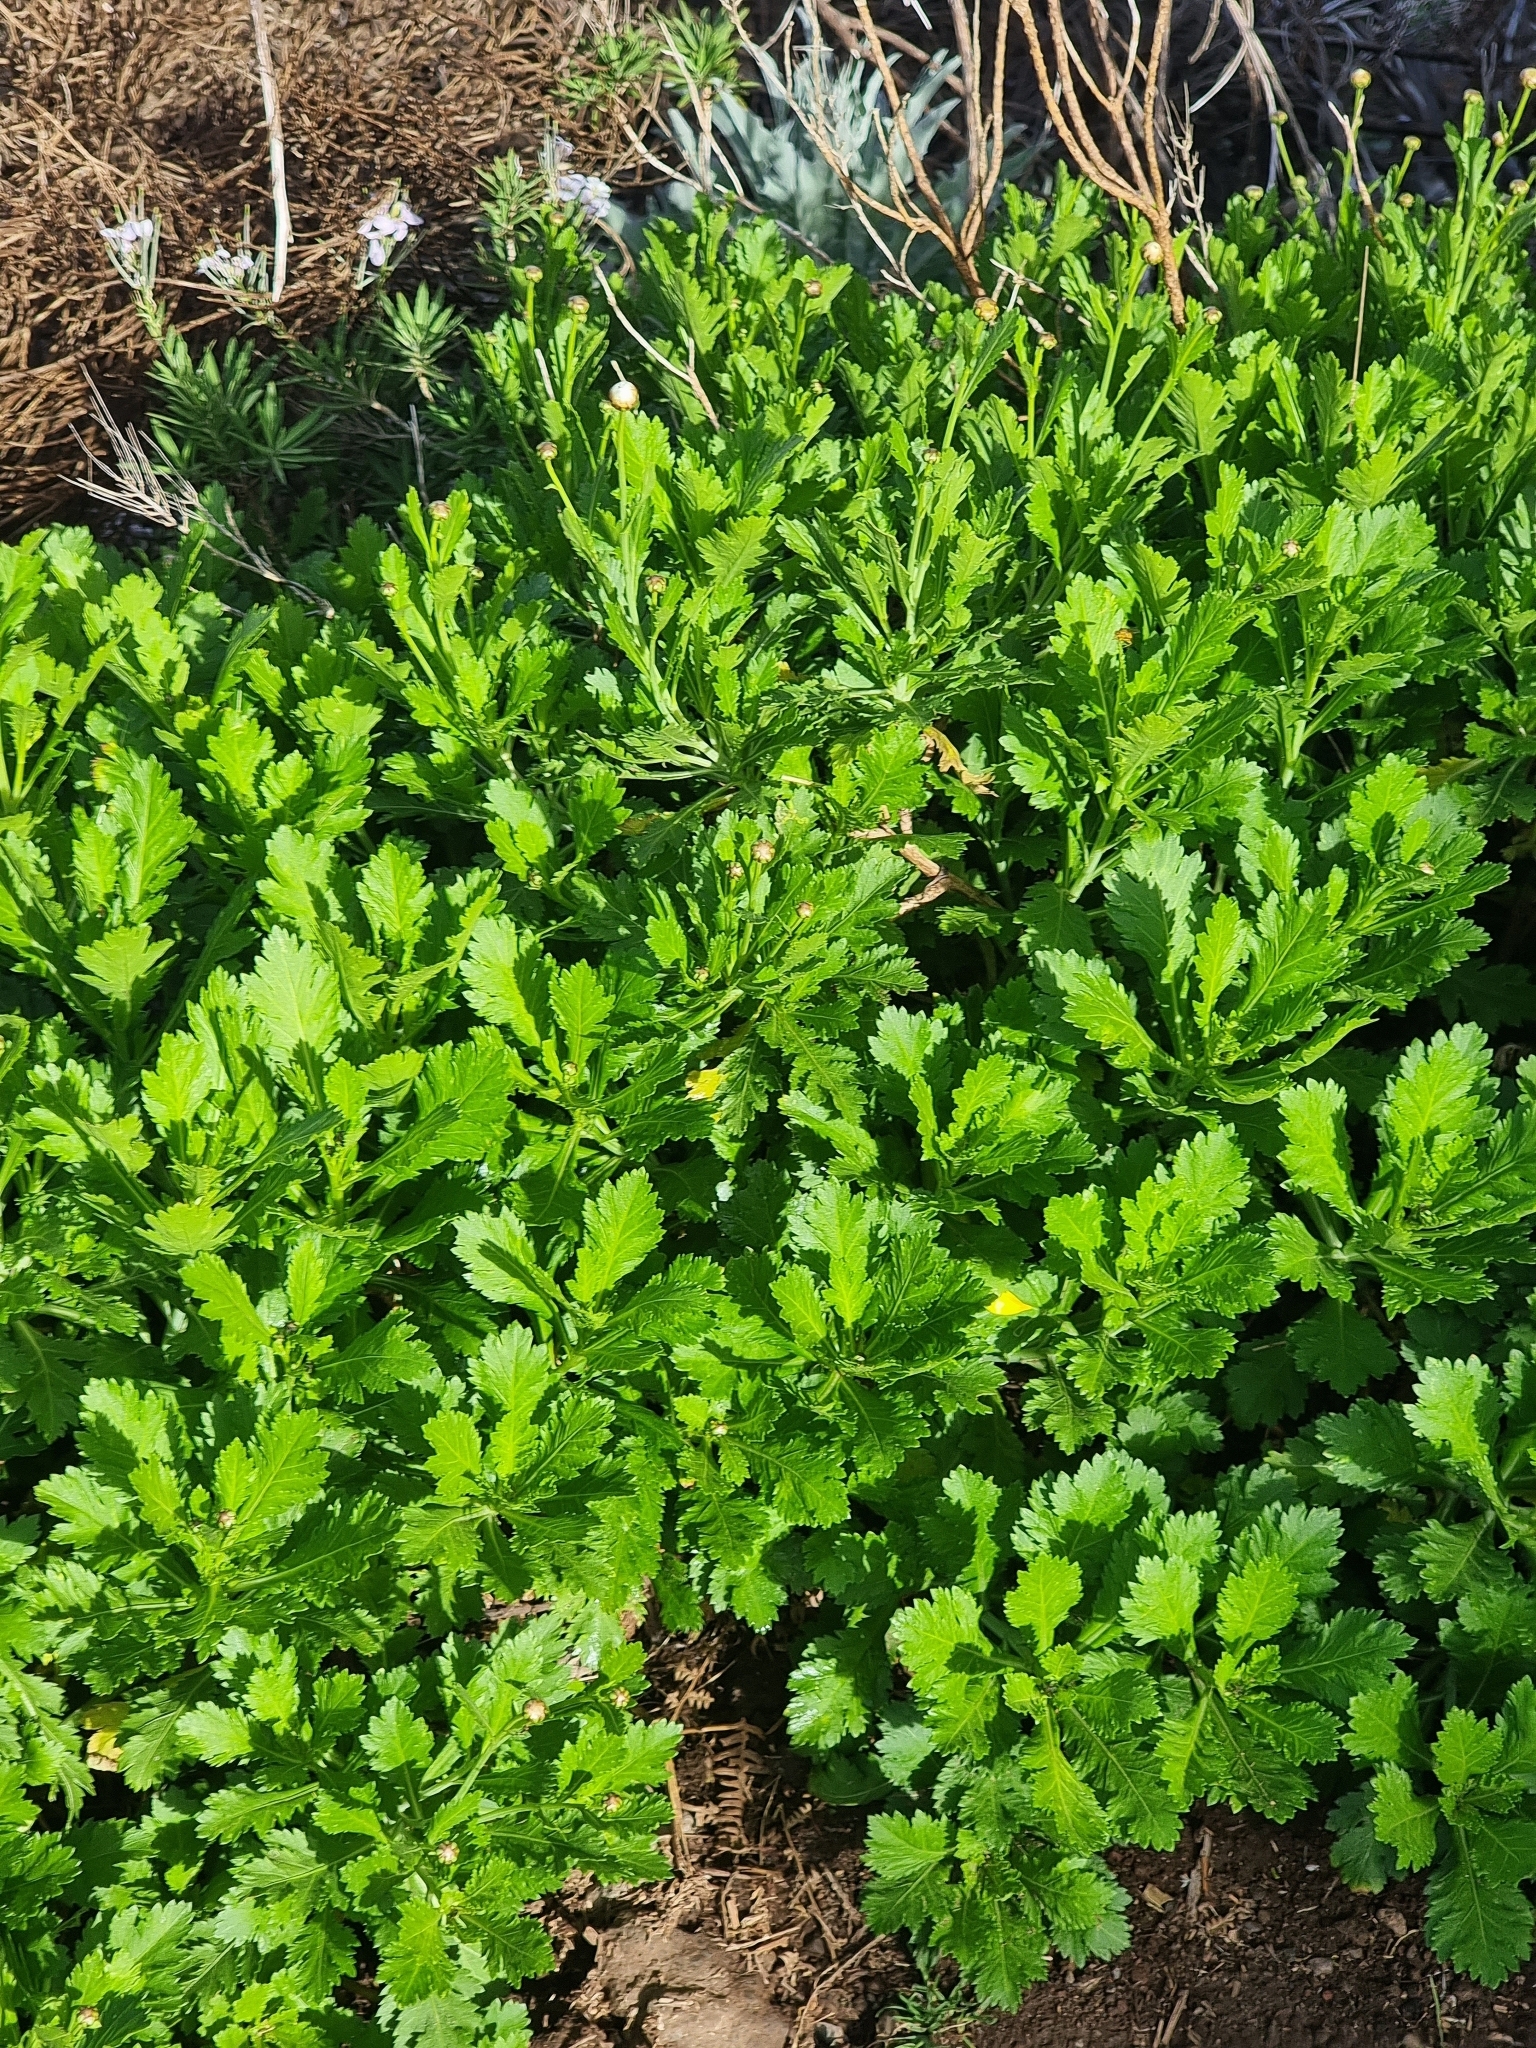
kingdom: Plantae
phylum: Tracheophyta
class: Magnoliopsida
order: Asterales
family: Asteraceae
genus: Argyranthemum
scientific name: Argyranthemum pinnatifidum
